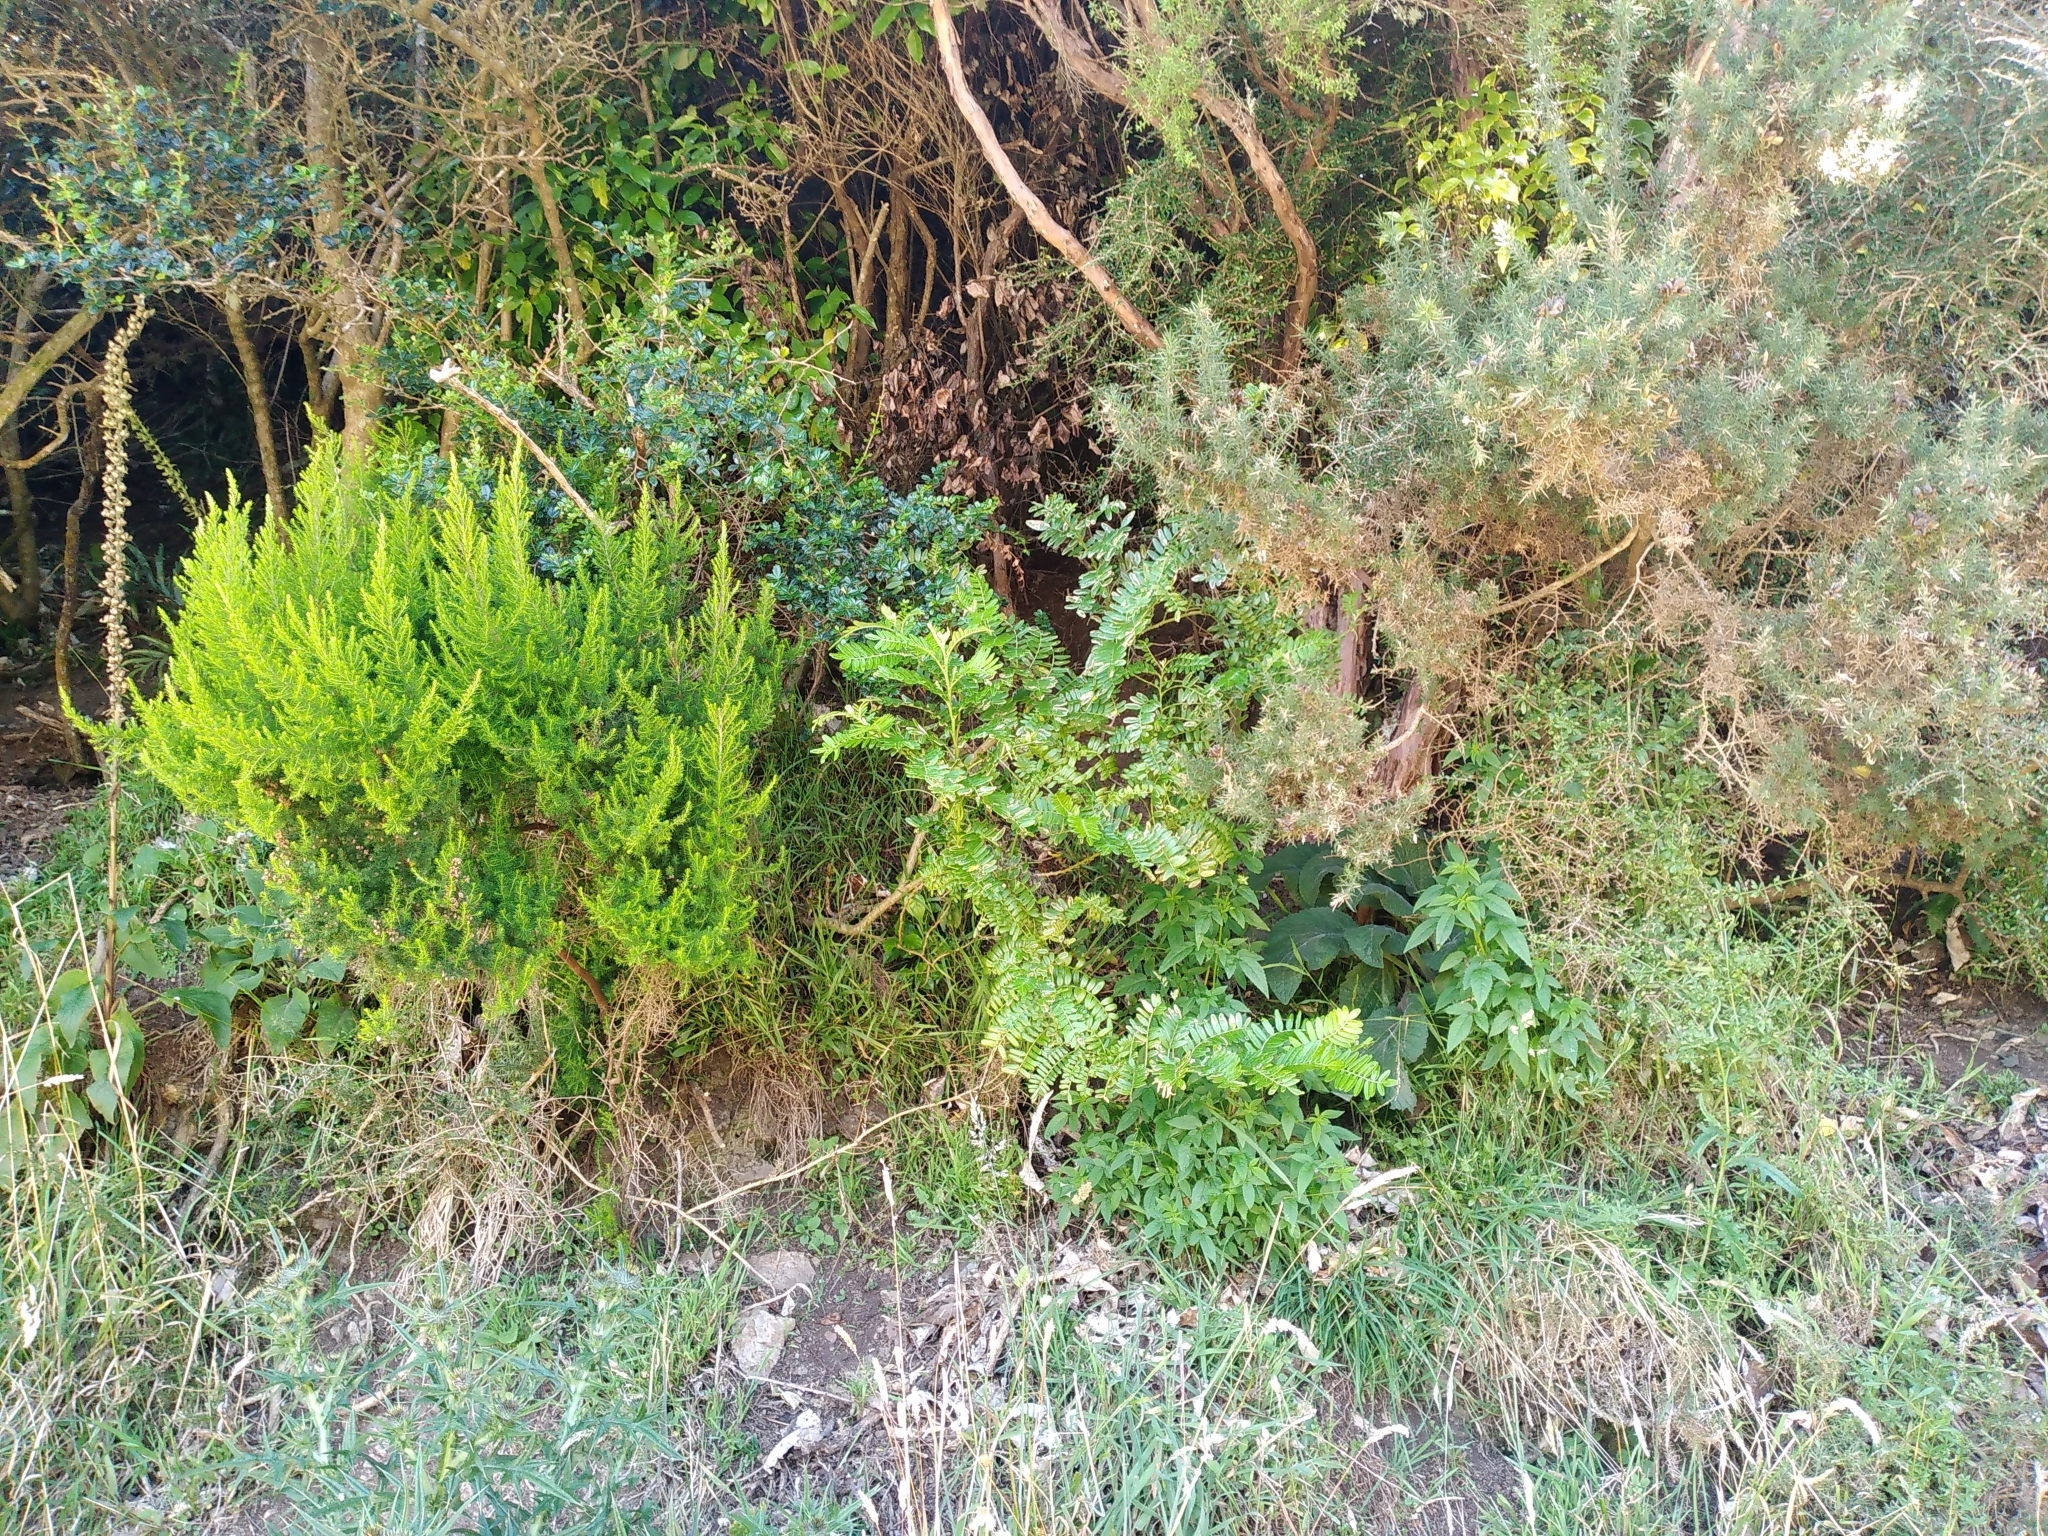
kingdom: Plantae
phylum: Tracheophyta
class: Magnoliopsida
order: Fabales
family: Fabaceae
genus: Clianthus
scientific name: Clianthus magnificus
